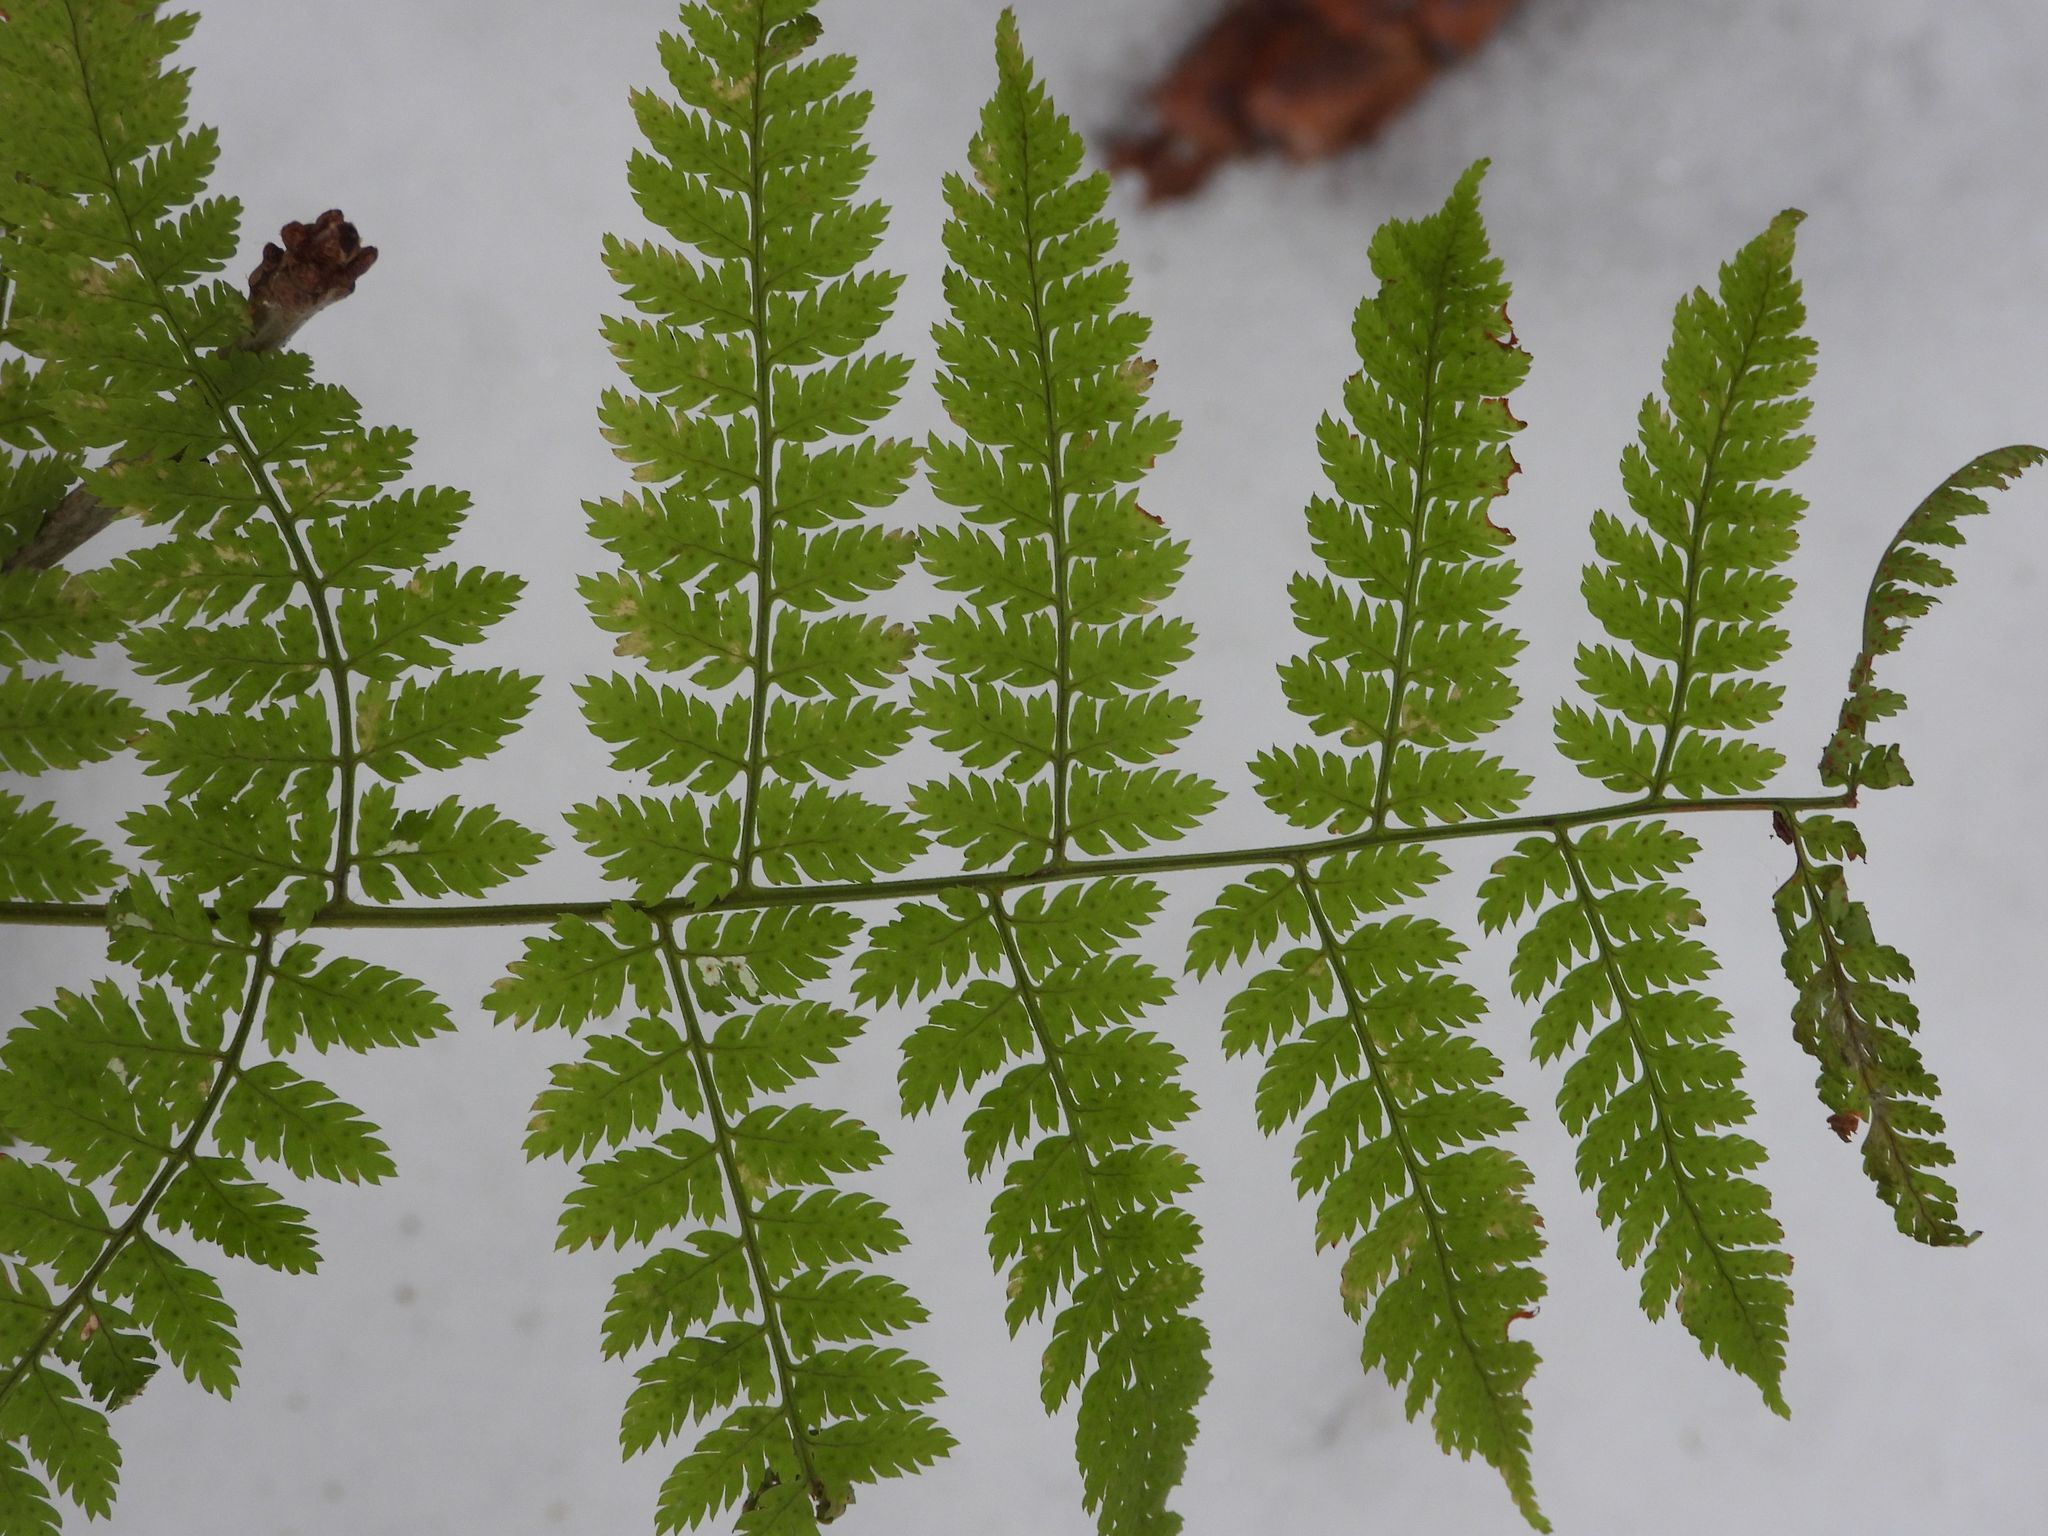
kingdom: Plantae
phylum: Tracheophyta
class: Polypodiopsida
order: Polypodiales
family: Dryopteridaceae
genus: Dryopteris
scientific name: Dryopteris intermedia
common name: Evergreen wood fern
